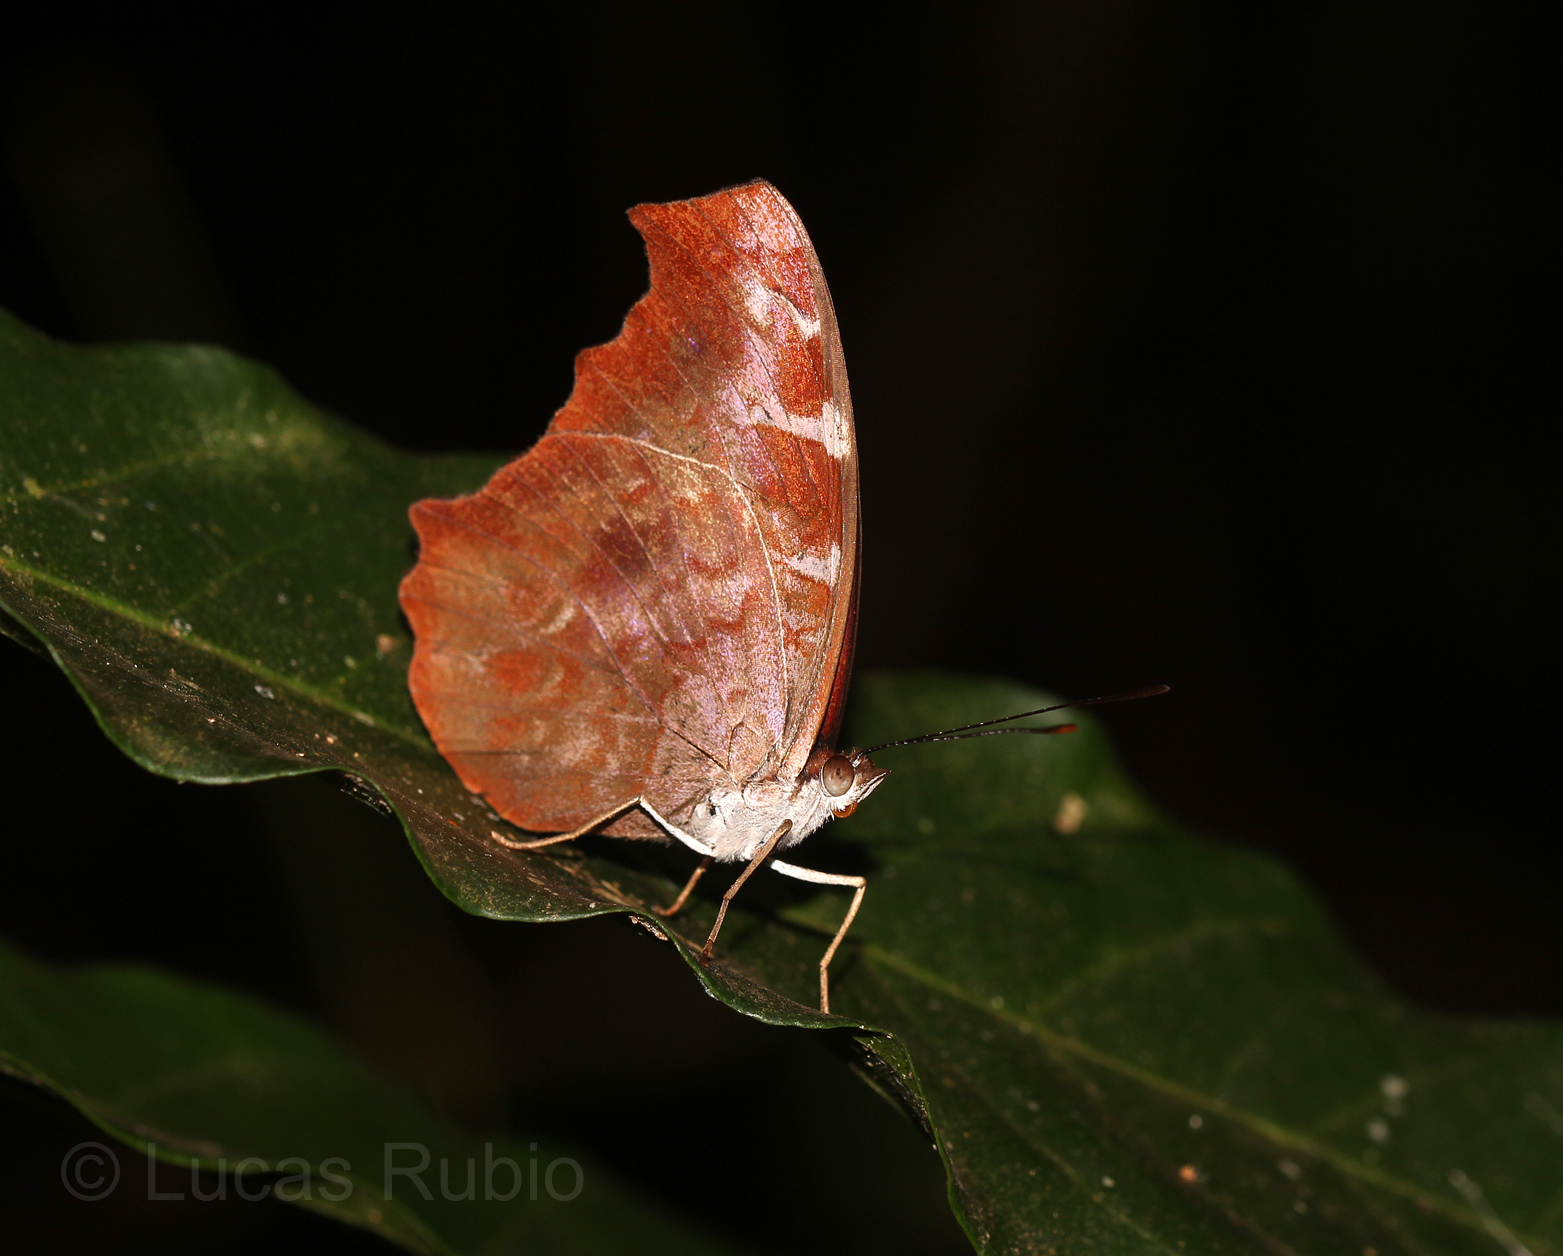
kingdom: Animalia
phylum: Arthropoda
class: Insecta
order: Lepidoptera
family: Nymphalidae
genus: Myscelia
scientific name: Myscelia orsis
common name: Orsis bluewing
